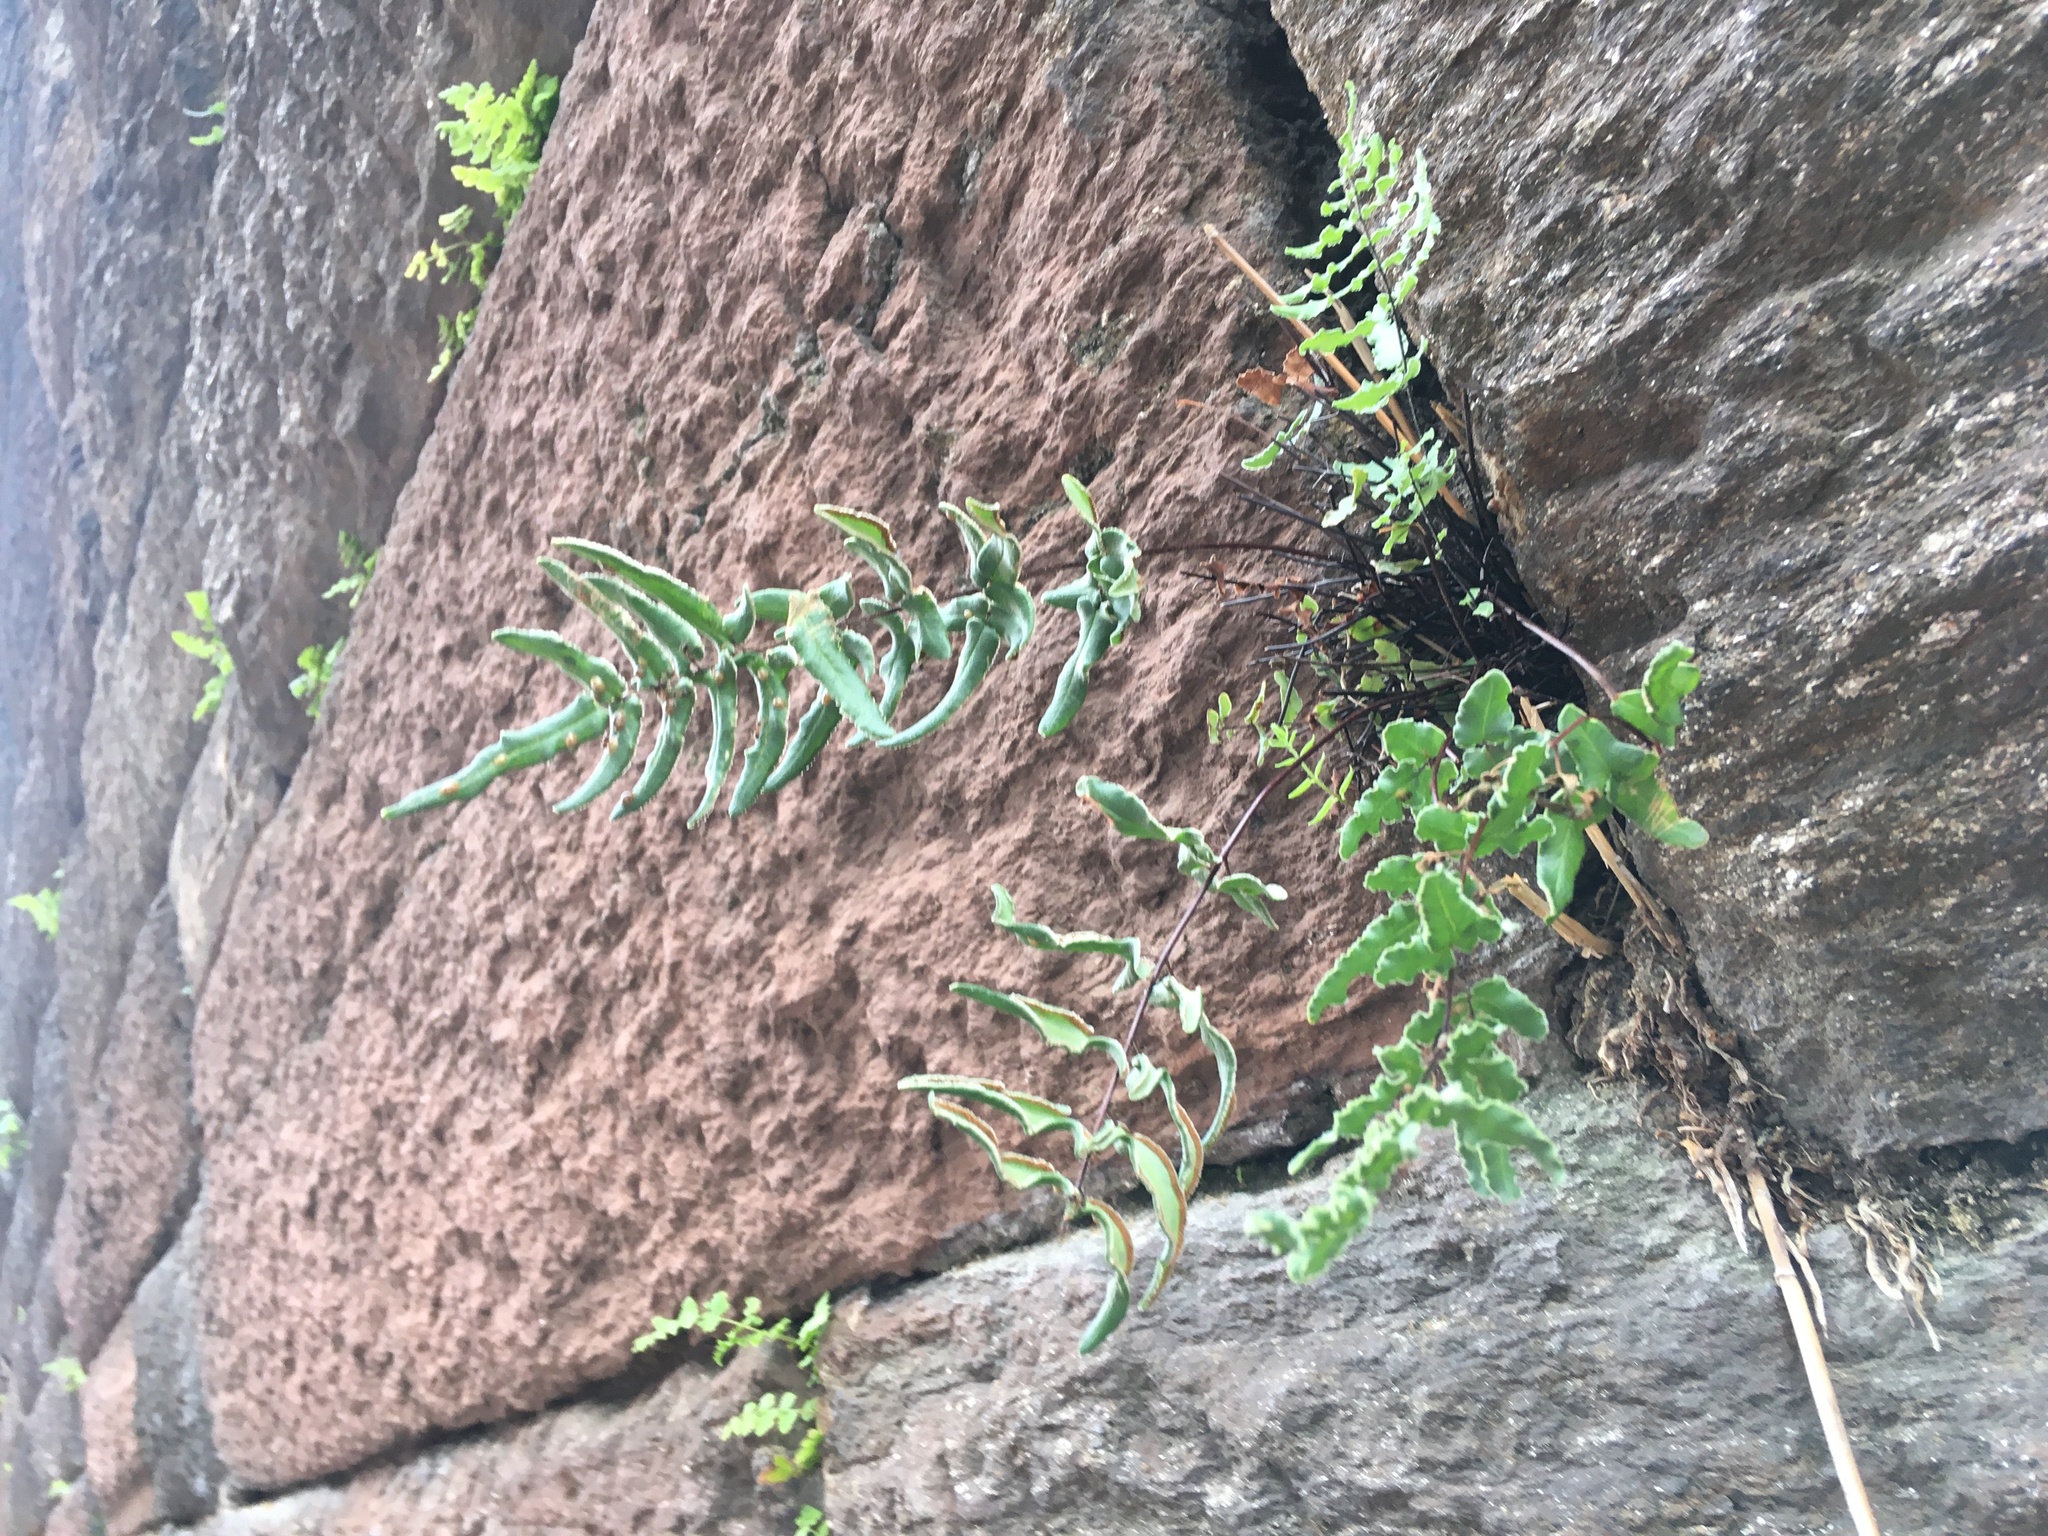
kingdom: Plantae
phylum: Tracheophyta
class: Polypodiopsida
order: Polypodiales
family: Pteridaceae
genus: Pellaea
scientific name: Pellaea atropurpurea
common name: Hairy cliffbrake
